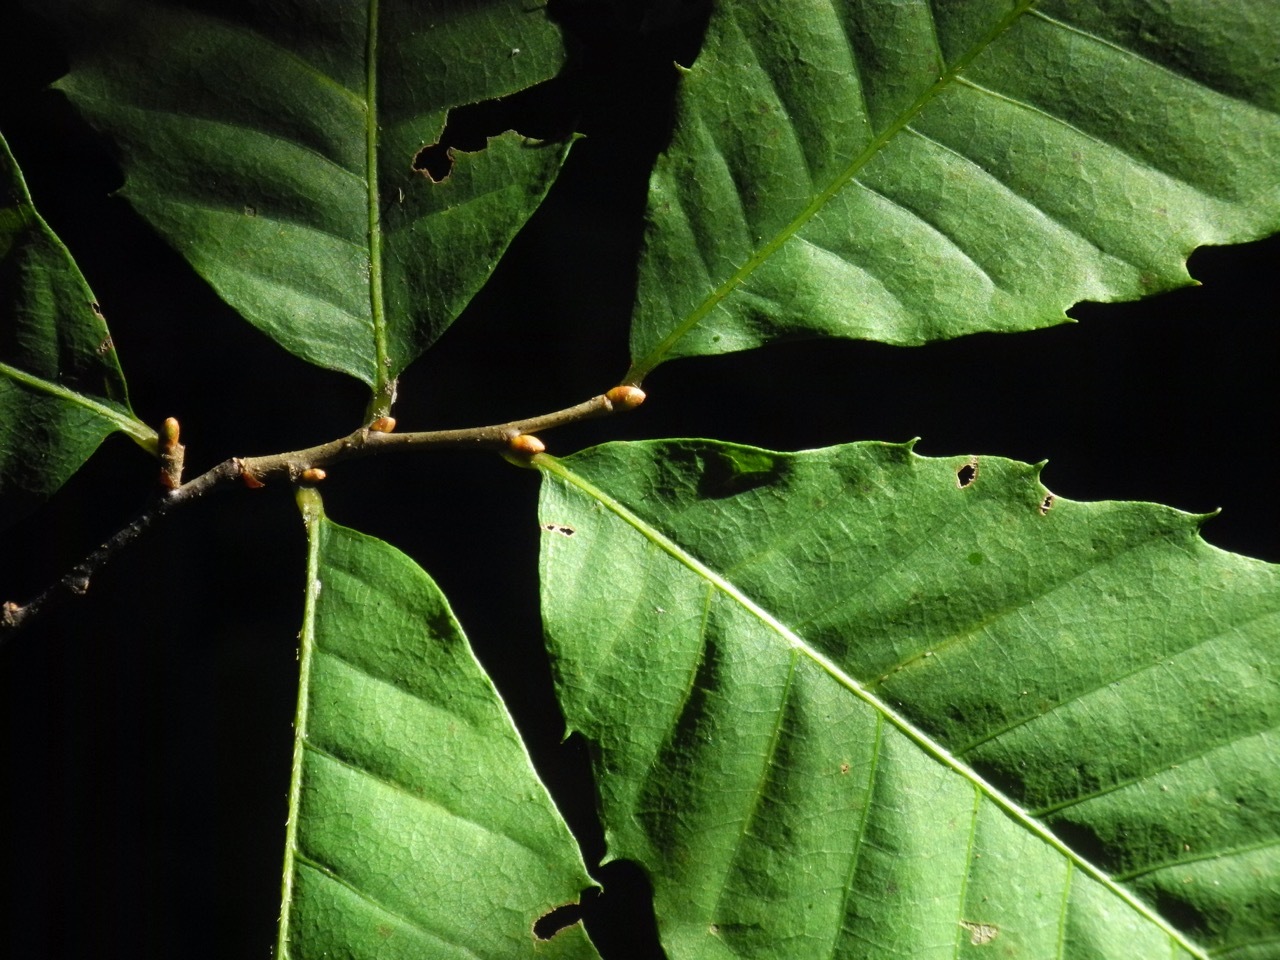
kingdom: Plantae
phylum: Tracheophyta
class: Magnoliopsida
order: Fagales
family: Fagaceae
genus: Castanea
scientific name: Castanea pumila
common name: Chinkapin
